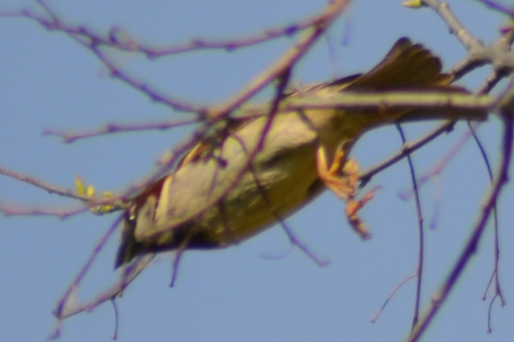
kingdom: Animalia
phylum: Chordata
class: Aves
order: Passeriformes
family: Passeridae
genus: Passer
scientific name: Passer domesticus
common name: House sparrow
